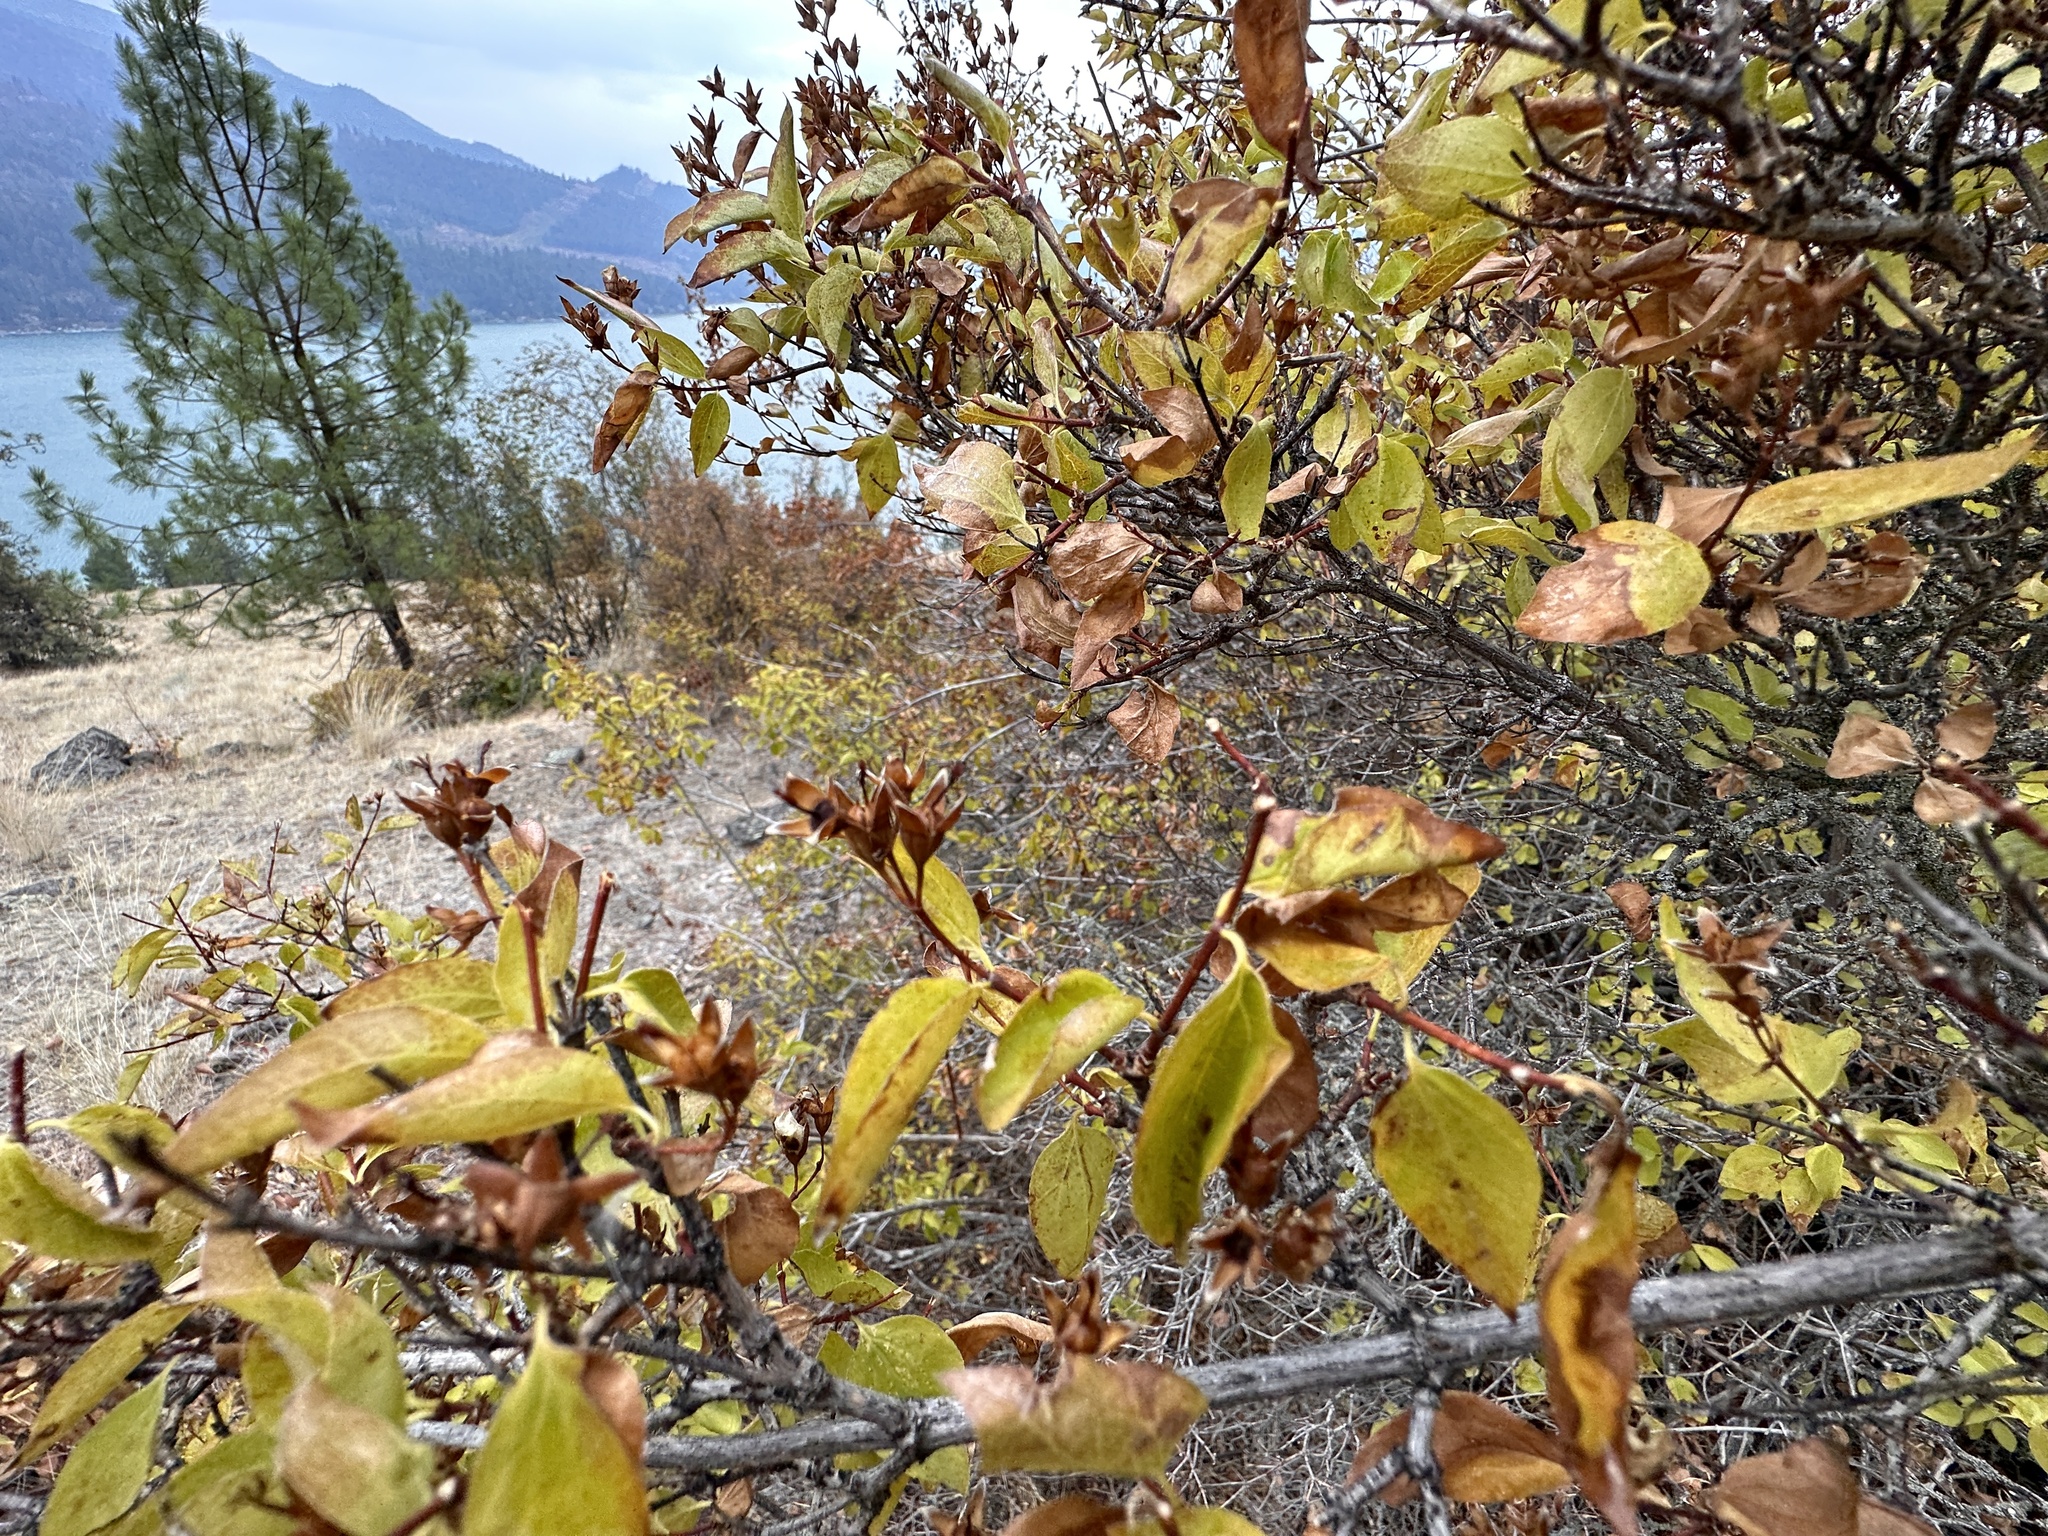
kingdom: Plantae
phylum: Tracheophyta
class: Magnoliopsida
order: Cornales
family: Hydrangeaceae
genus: Philadelphus
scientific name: Philadelphus lewisii
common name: Lewis's mock orange
